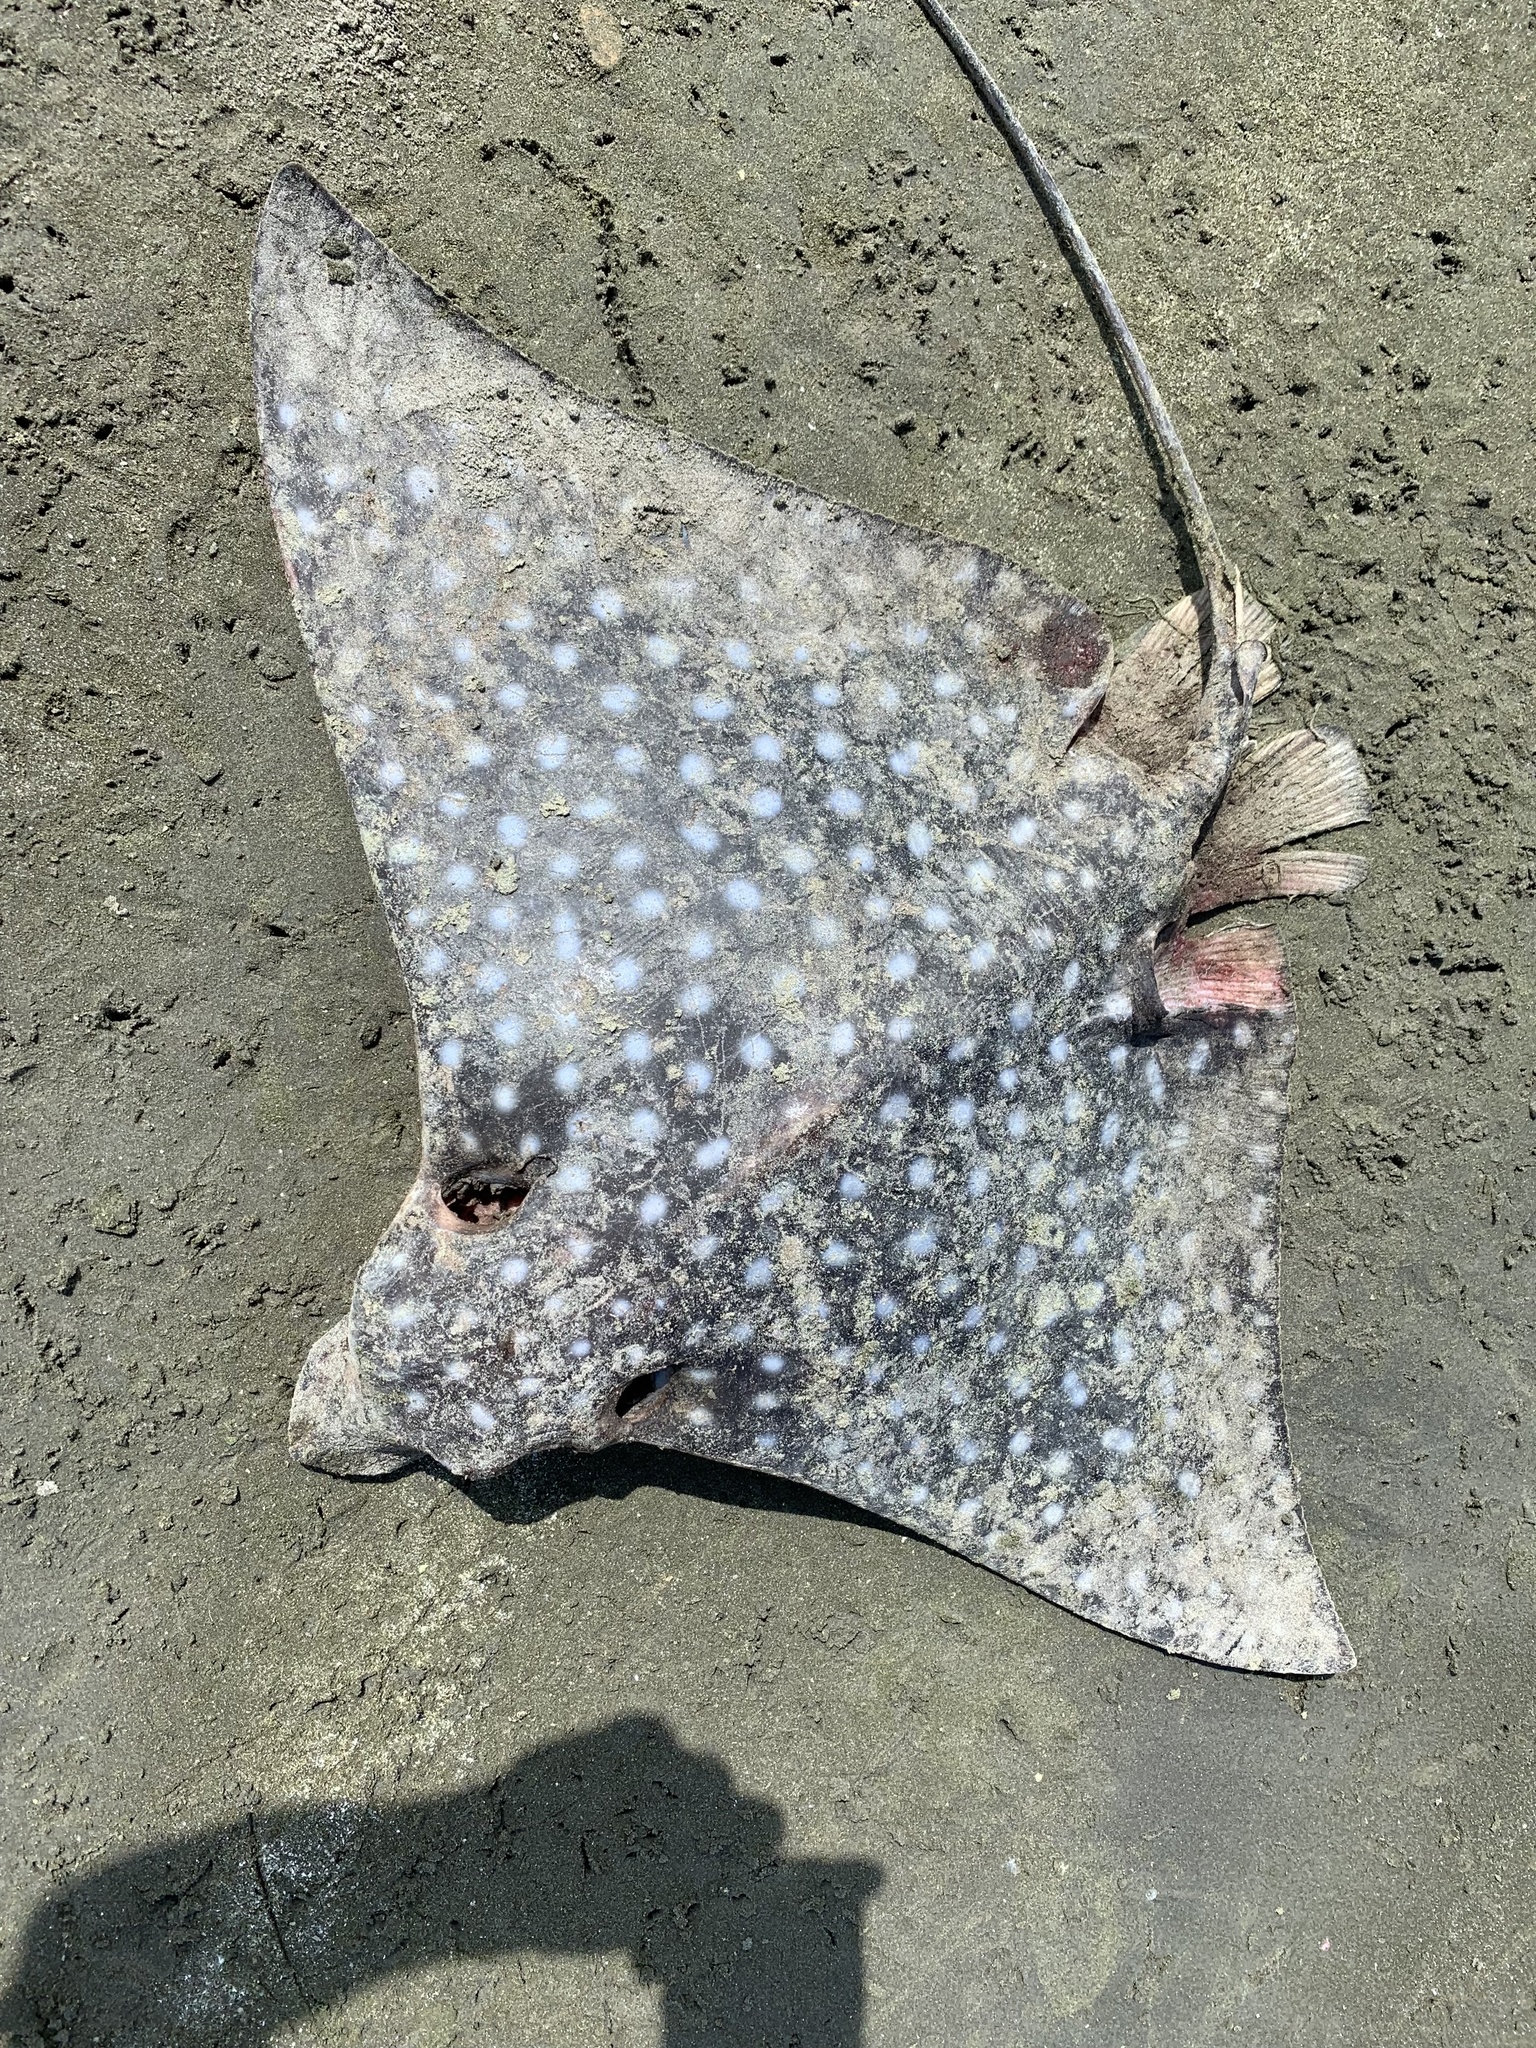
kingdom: Animalia
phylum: Chordata
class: Elasmobranchii
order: Myliobatiformes
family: Myliobatidae
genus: Aetobatus
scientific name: Aetobatus laticeps
